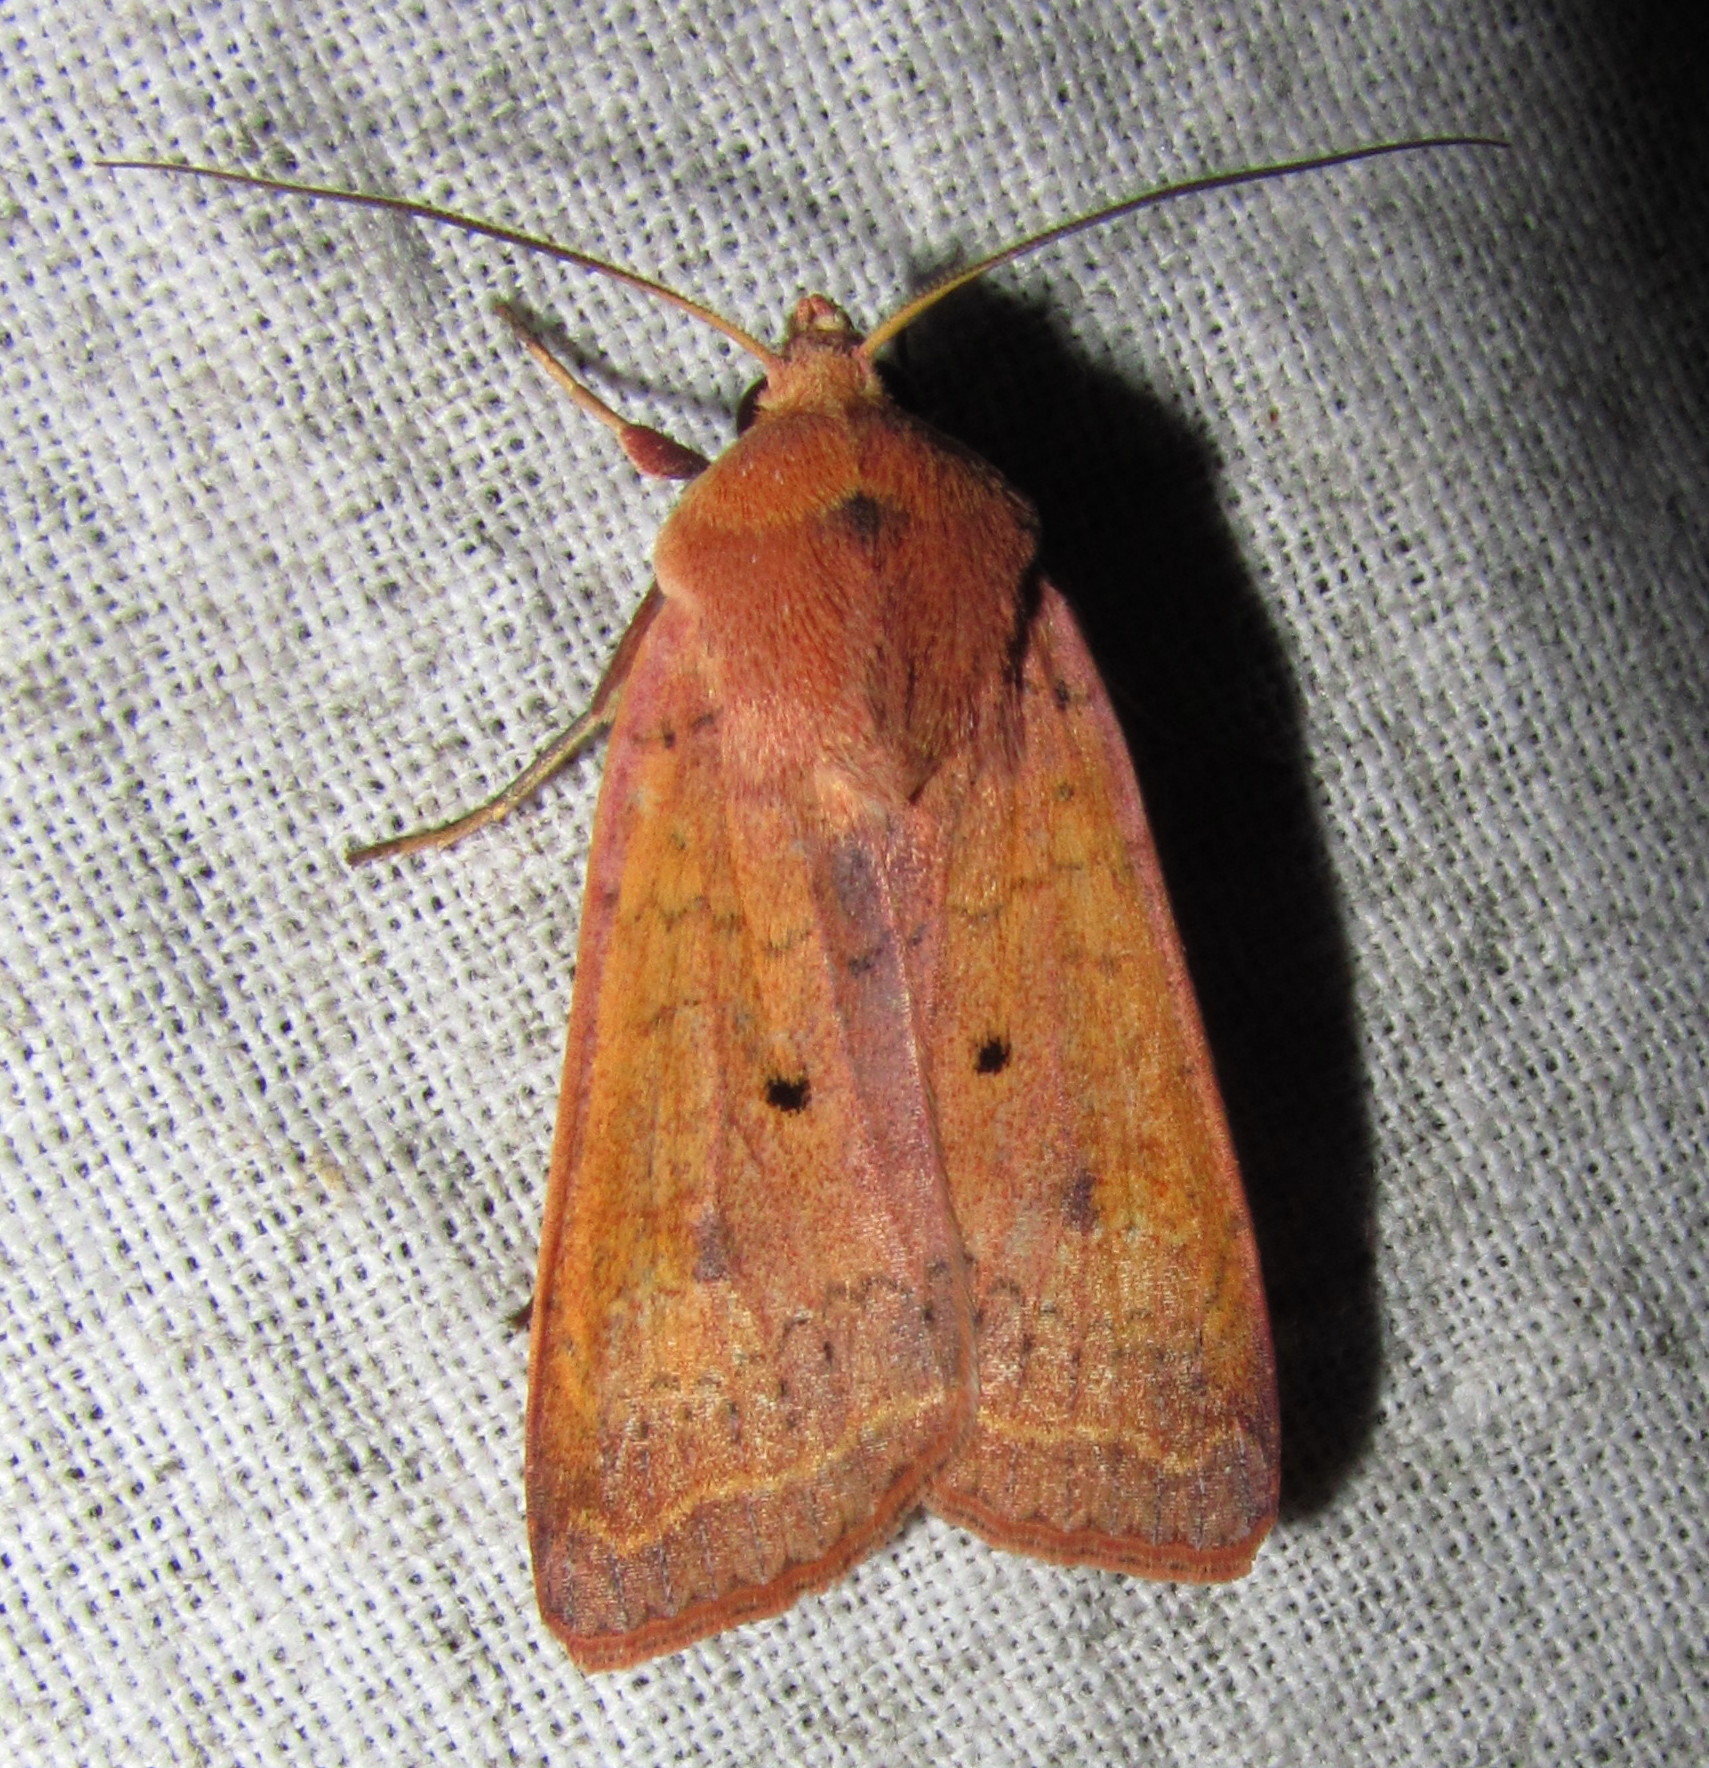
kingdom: Animalia
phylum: Arthropoda
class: Insecta
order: Lepidoptera
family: Noctuidae
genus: Diarsia
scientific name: Diarsia nigrosigna
